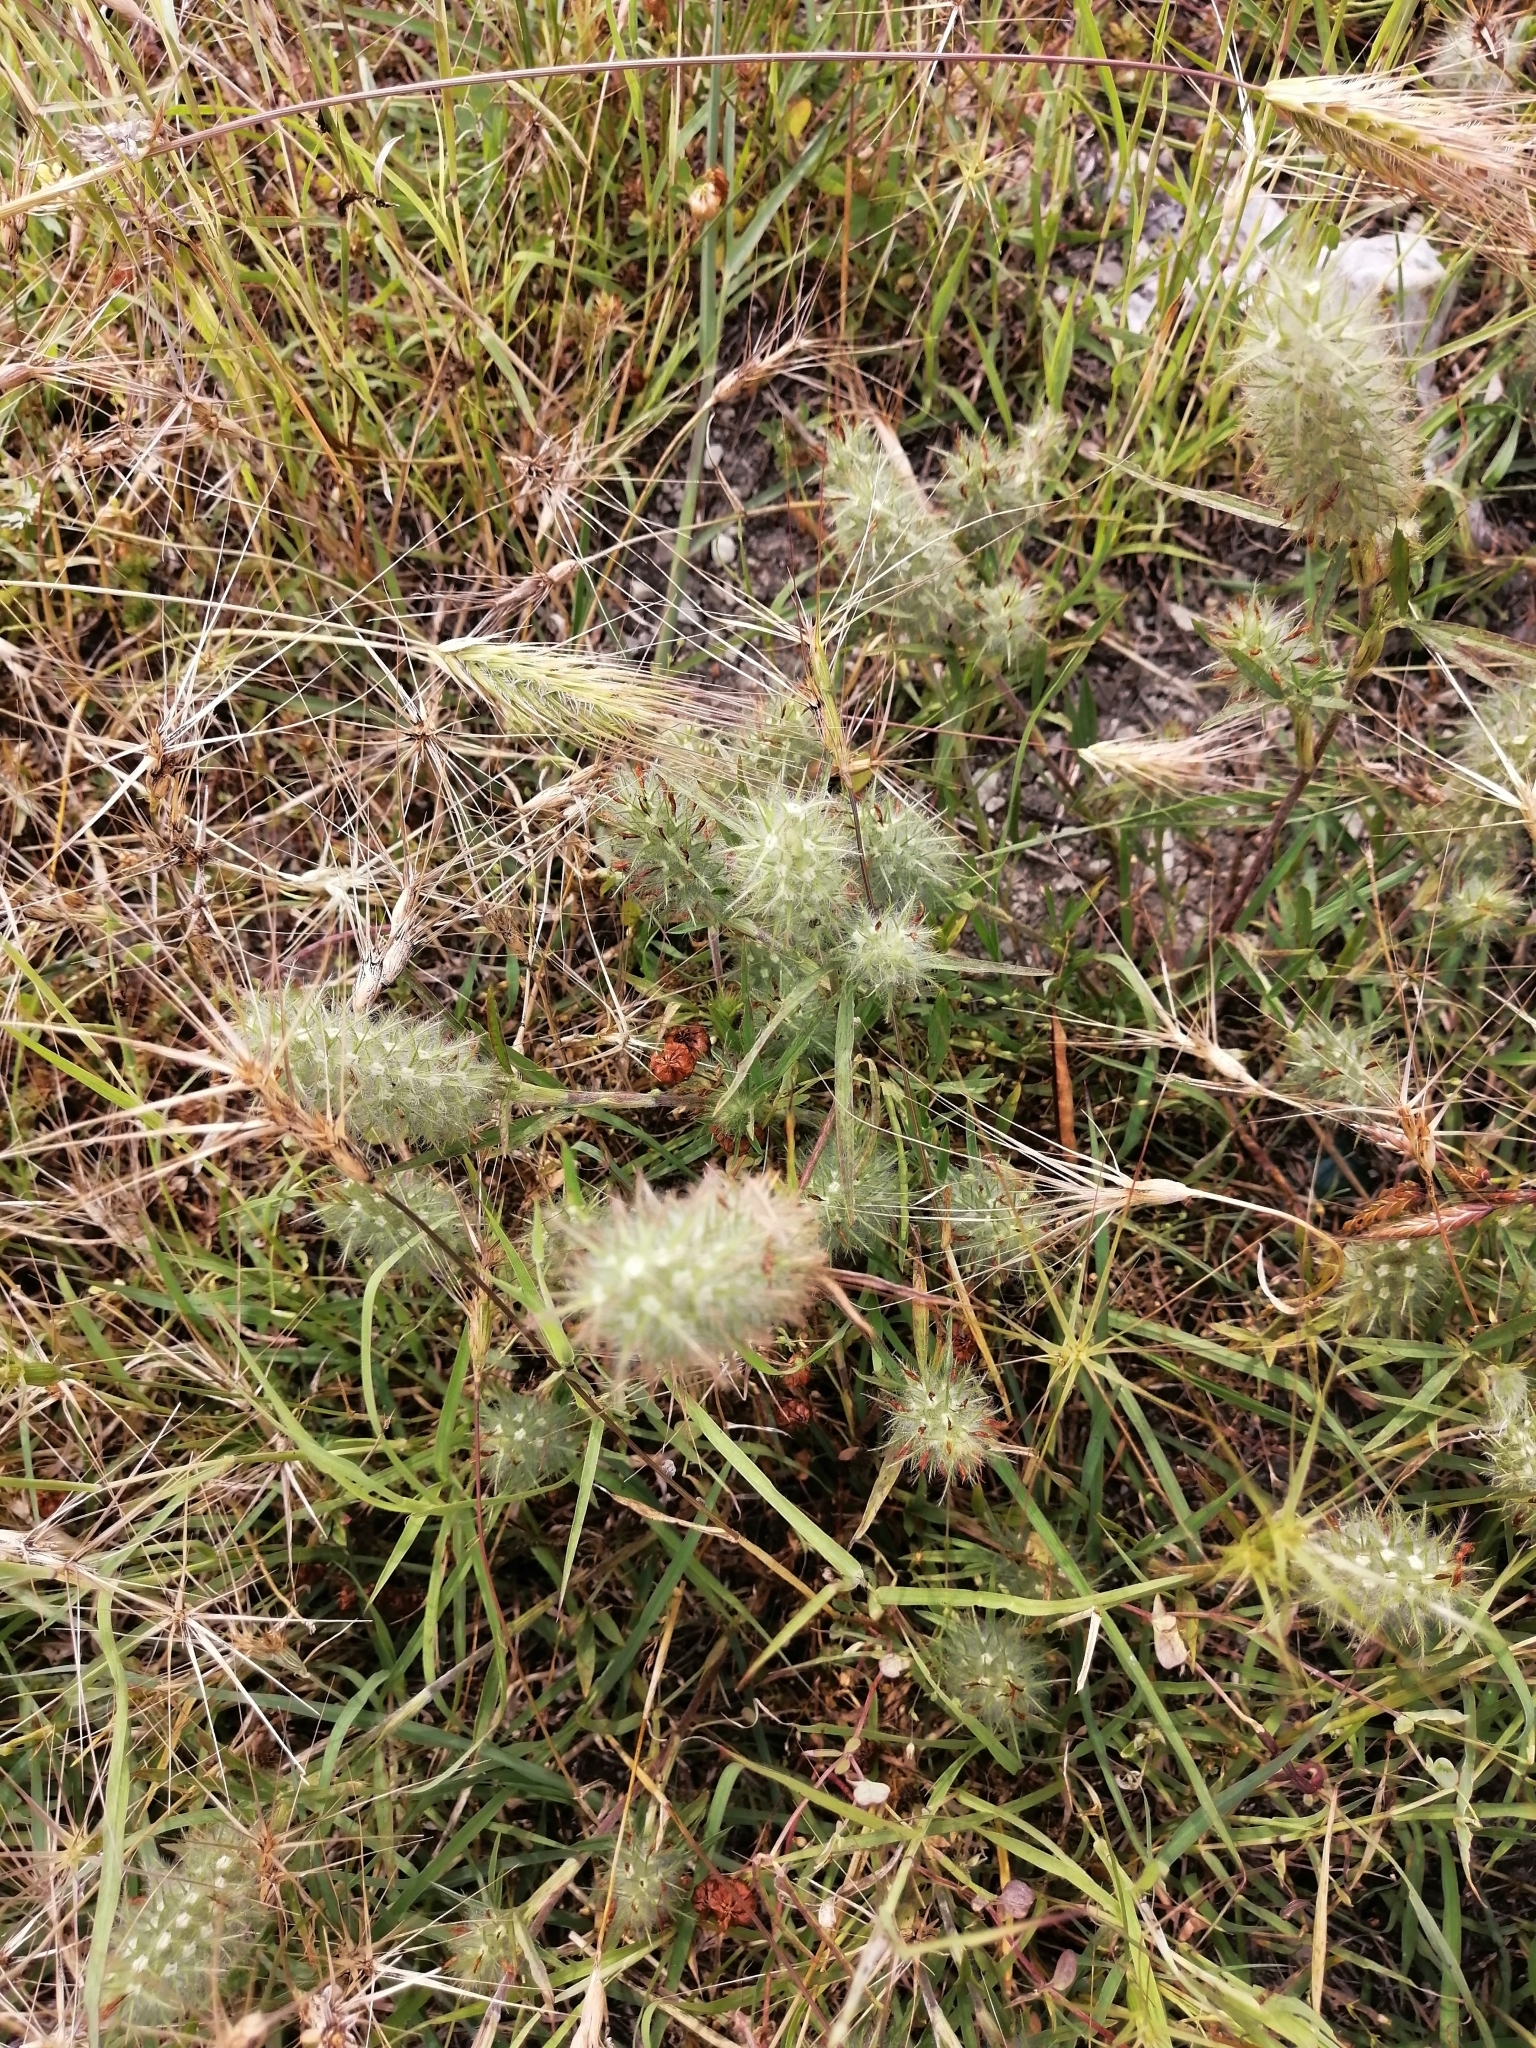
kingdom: Plantae
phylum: Tracheophyta
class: Magnoliopsida
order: Fabales
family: Fabaceae
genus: Trifolium
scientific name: Trifolium angustifolium
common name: Narrow clover
